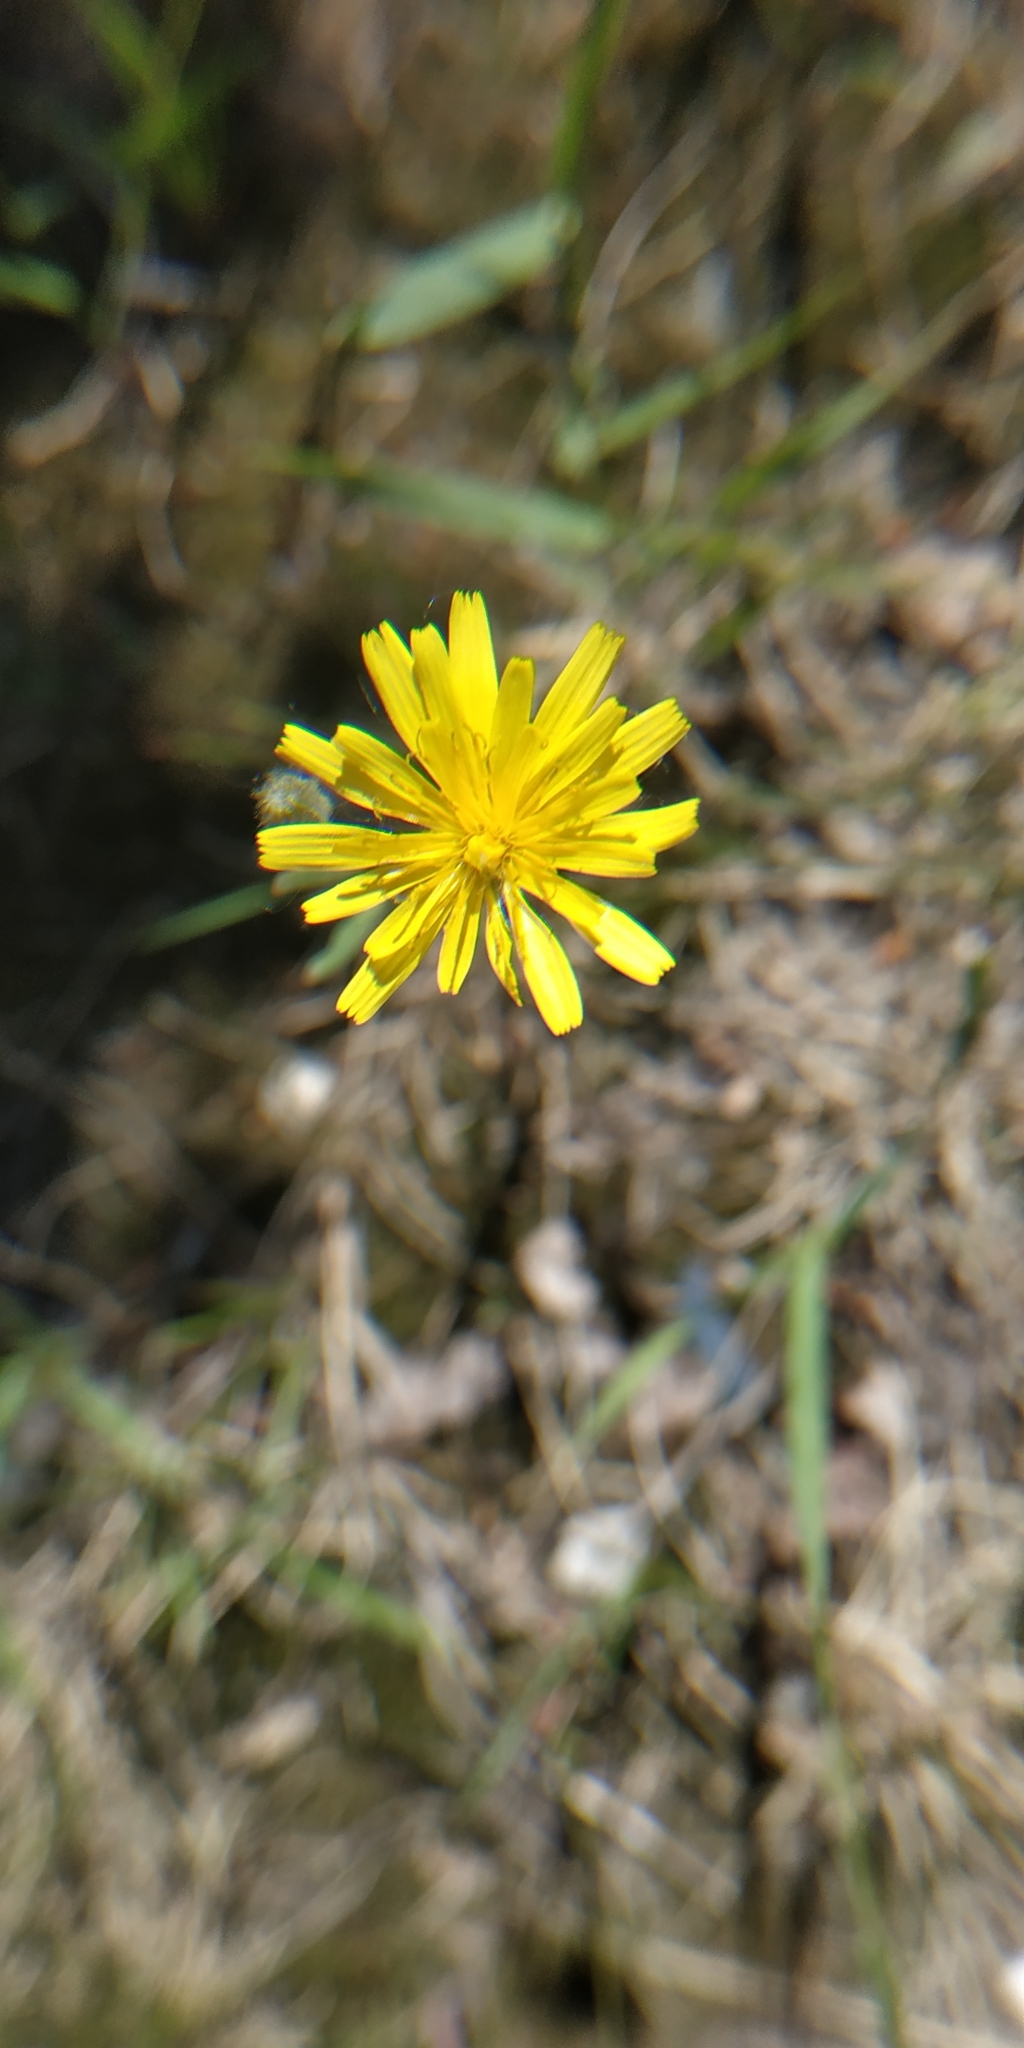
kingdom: Plantae
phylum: Tracheophyta
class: Magnoliopsida
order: Asterales
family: Asteraceae
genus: Crepis
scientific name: Crepis tectorum
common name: Narrow-leaved hawk's-beard
